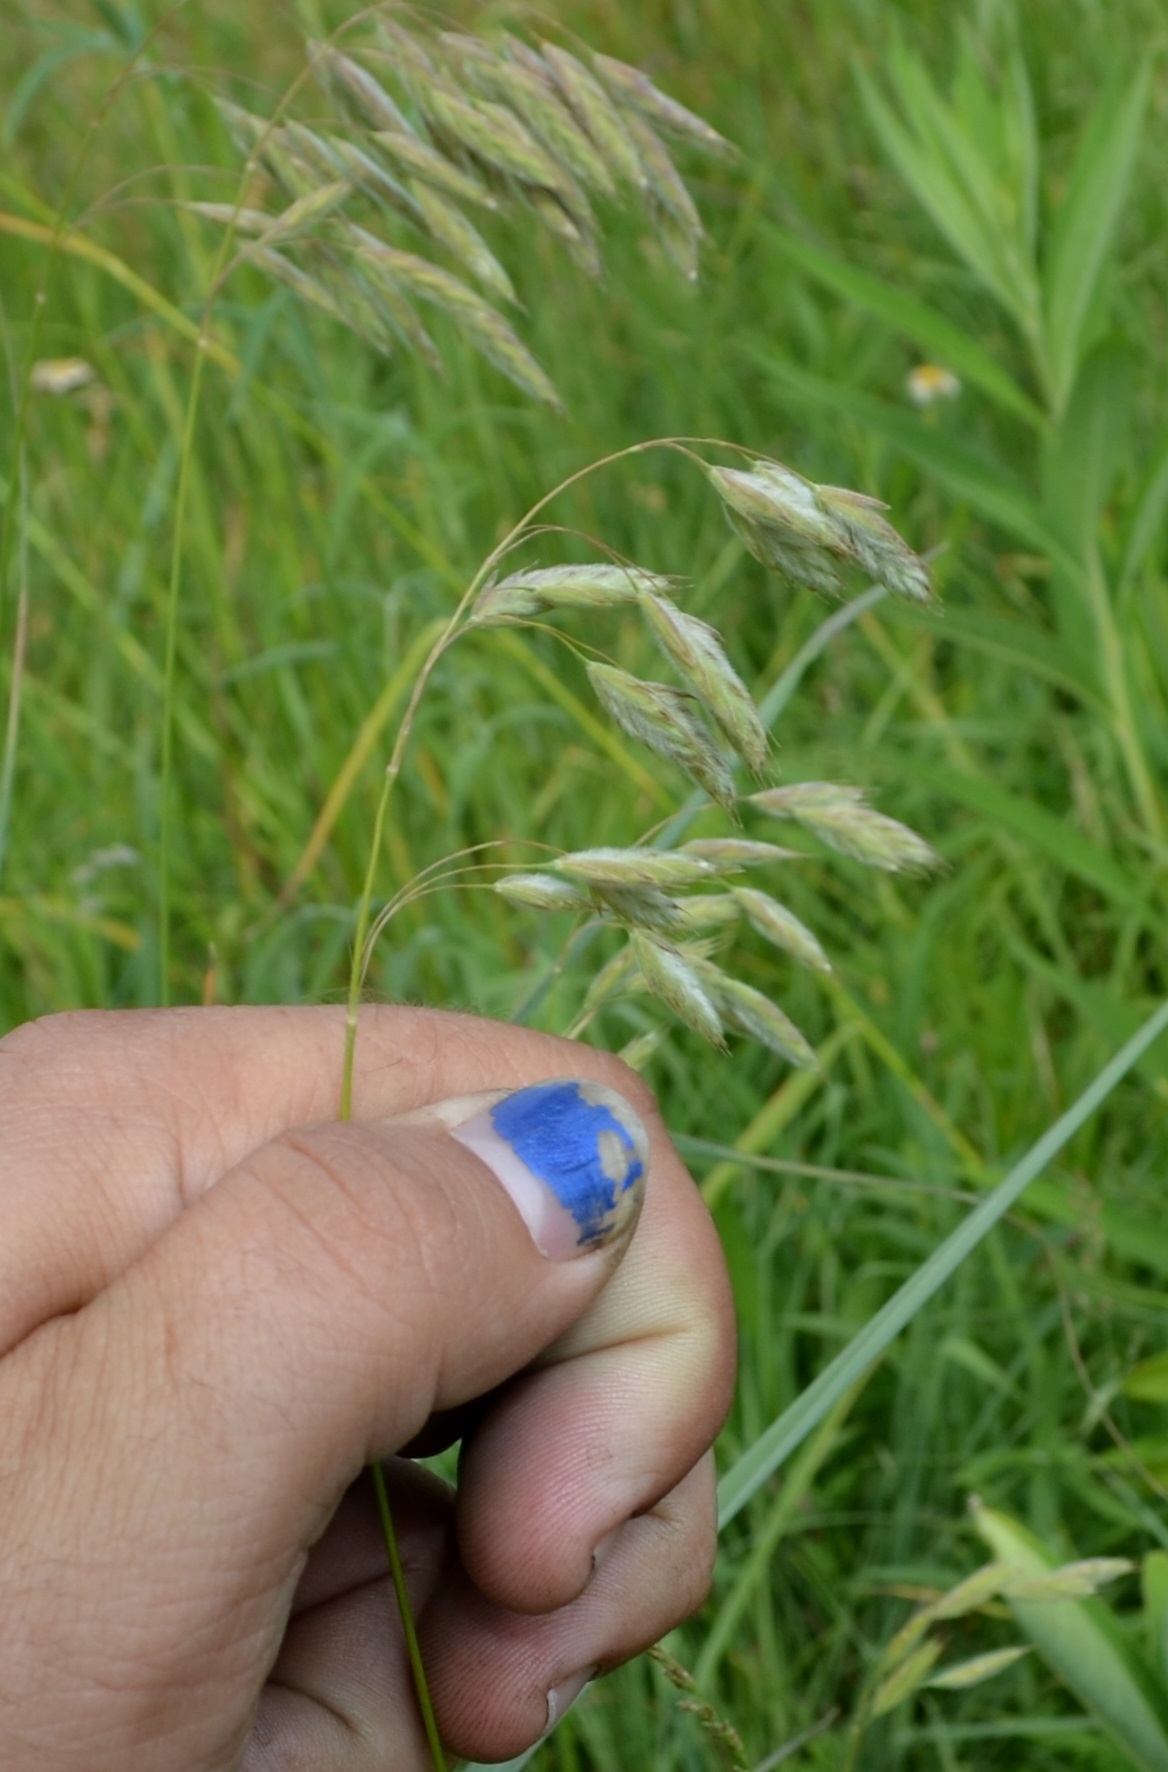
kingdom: Plantae
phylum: Tracheophyta
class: Liliopsida
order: Poales
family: Poaceae
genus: Bromus
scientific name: Bromus kalmii
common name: Kalm brome
